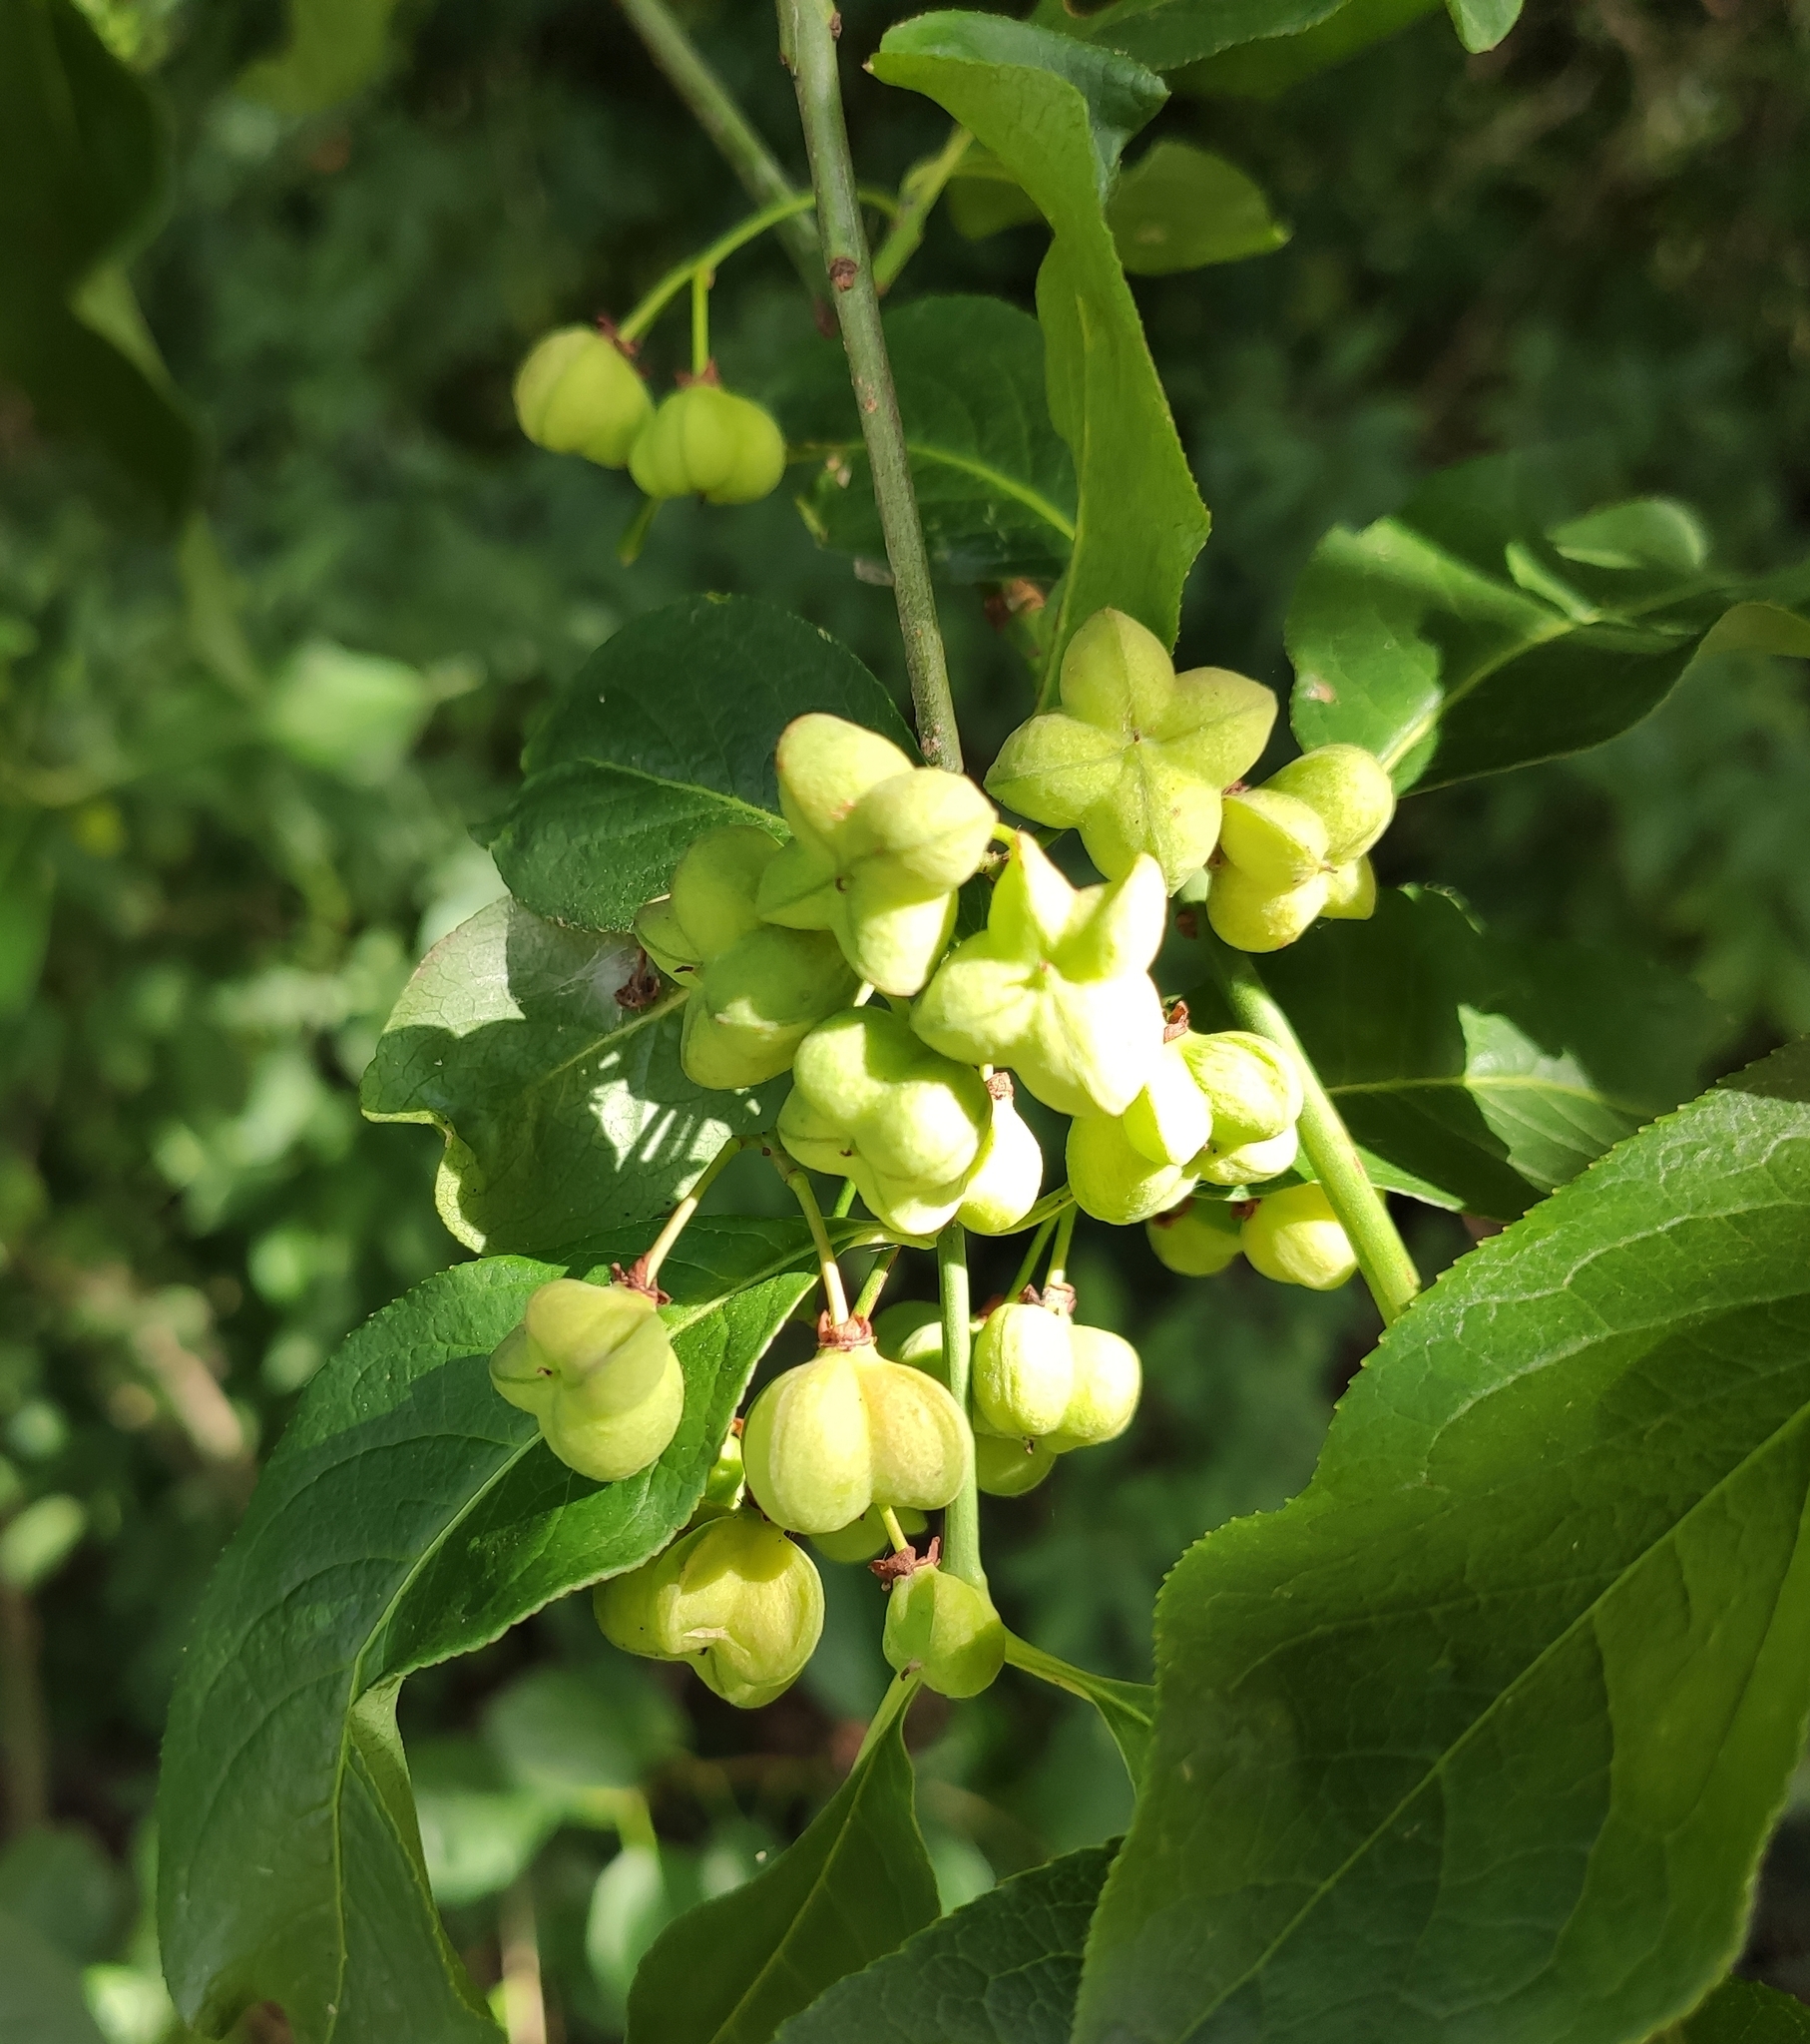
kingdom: Plantae
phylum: Tracheophyta
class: Magnoliopsida
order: Celastrales
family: Celastraceae
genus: Euonymus
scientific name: Euonymus europaeus
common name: Spindle
